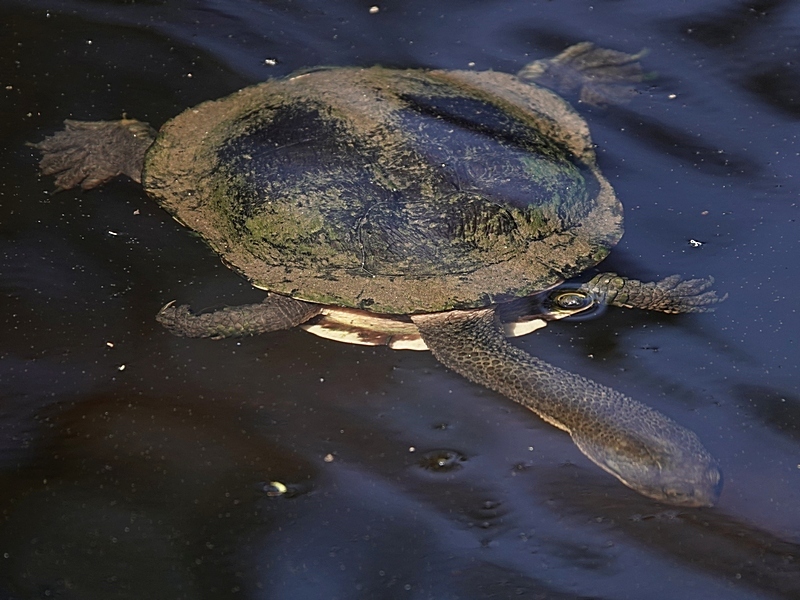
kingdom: Animalia
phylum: Chordata
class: Testudines
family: Chelidae
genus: Chelodina
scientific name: Chelodina longicollis
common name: Eastern snake-necked turtle
